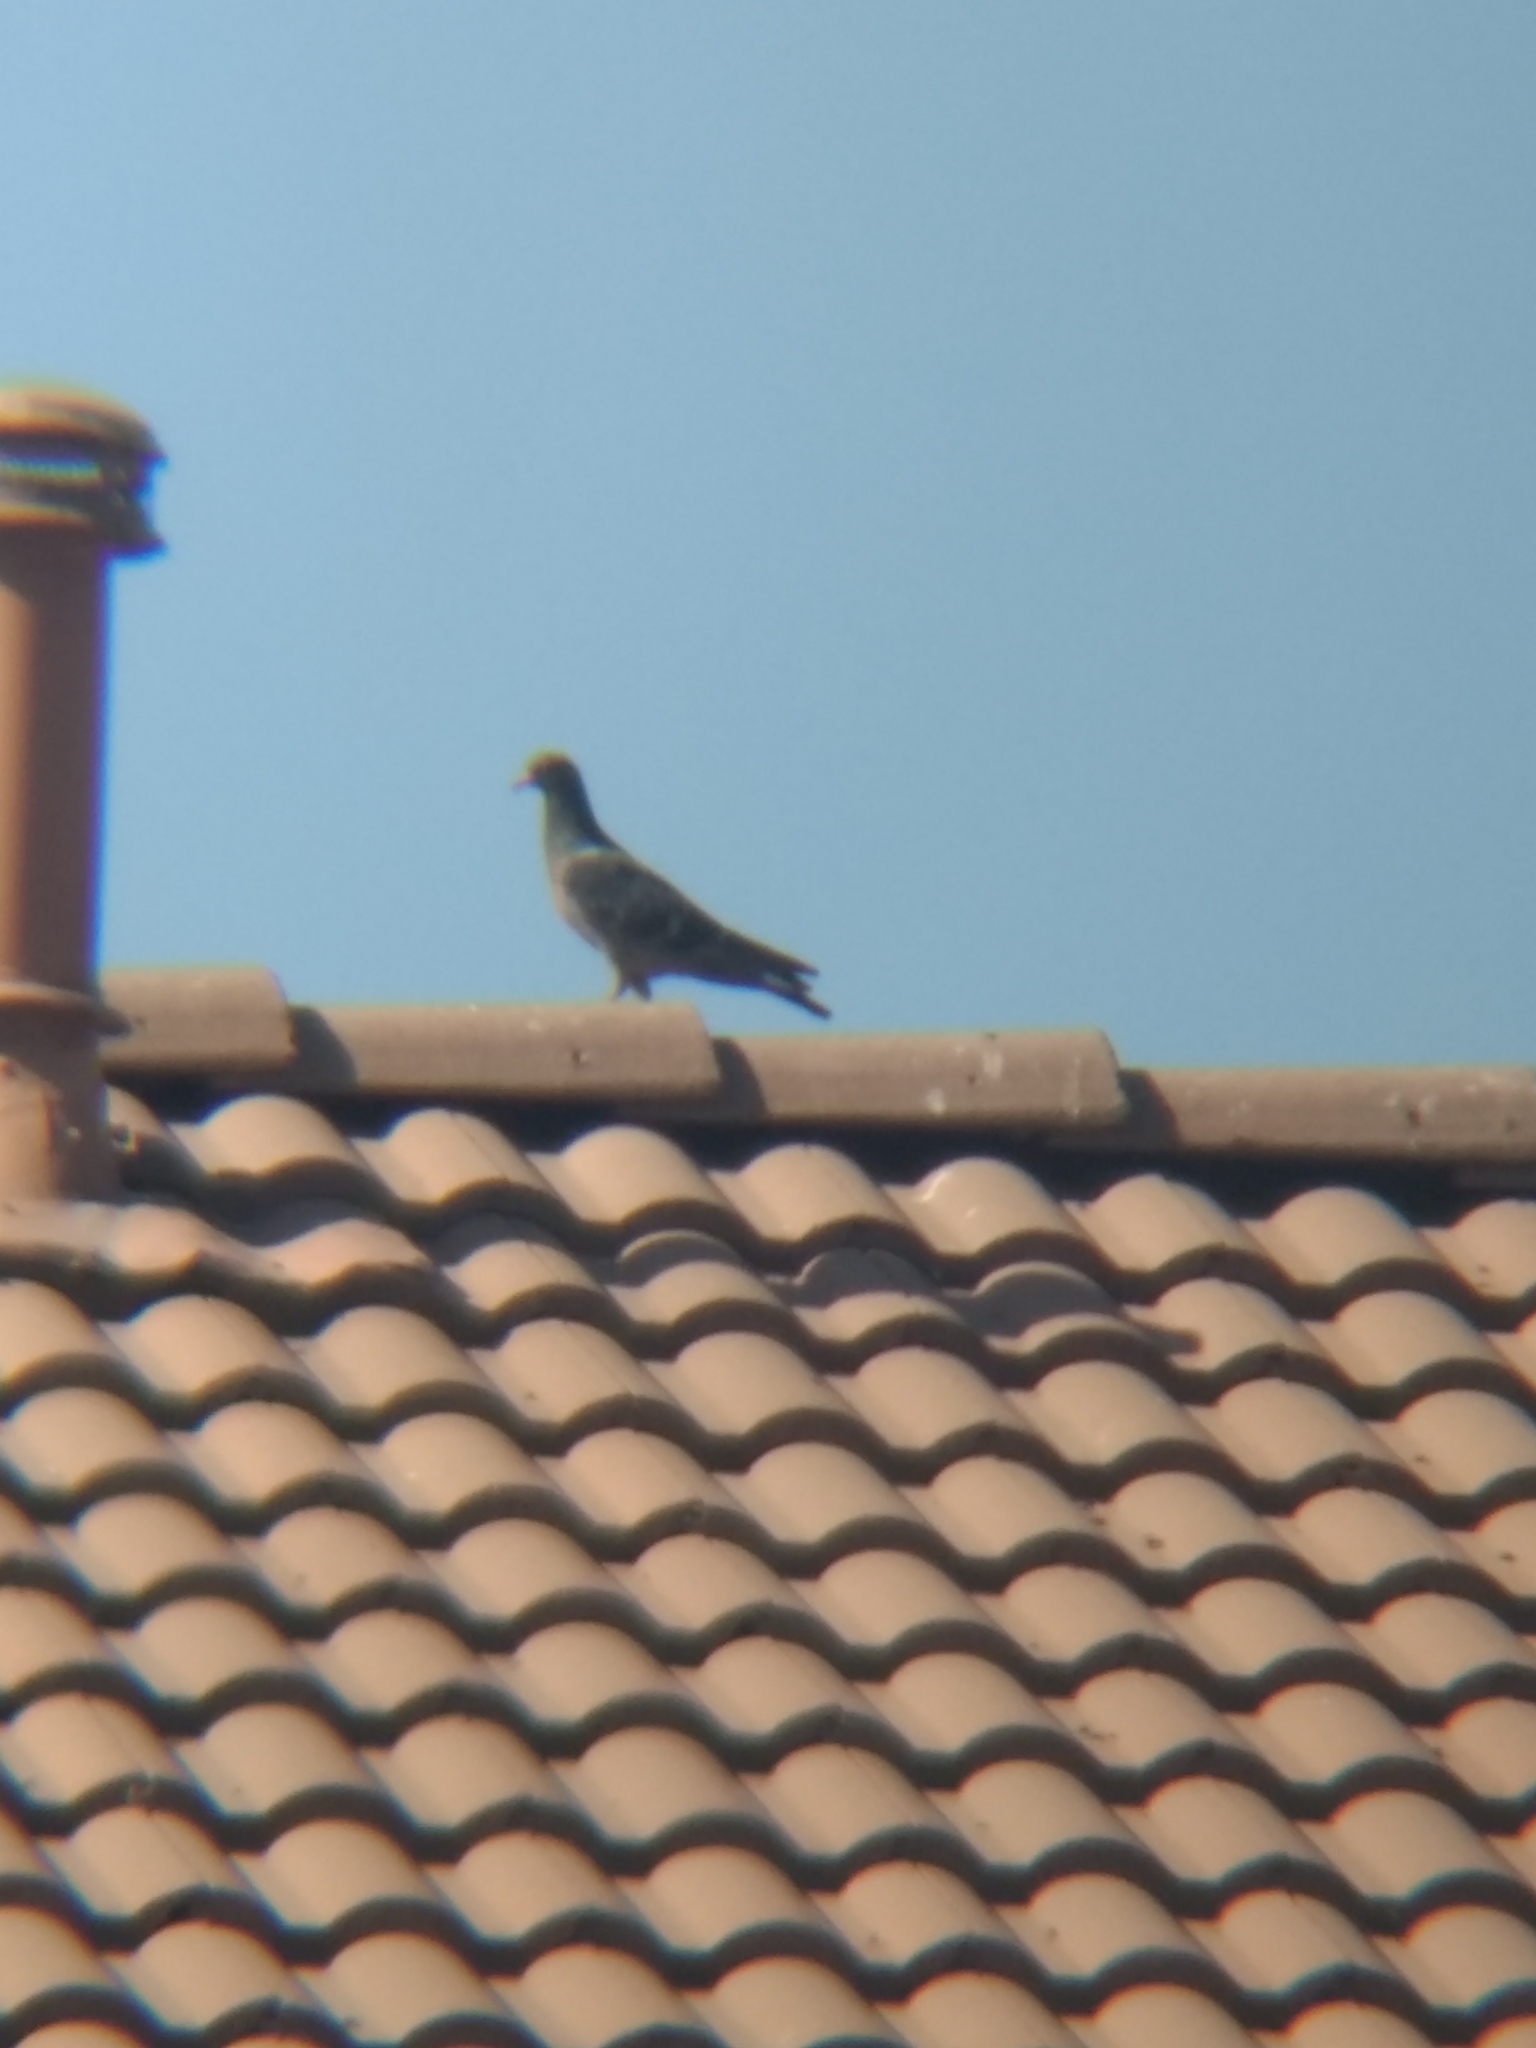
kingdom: Animalia
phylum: Chordata
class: Aves
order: Columbiformes
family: Columbidae
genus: Columba
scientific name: Columba livia
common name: Rock pigeon
